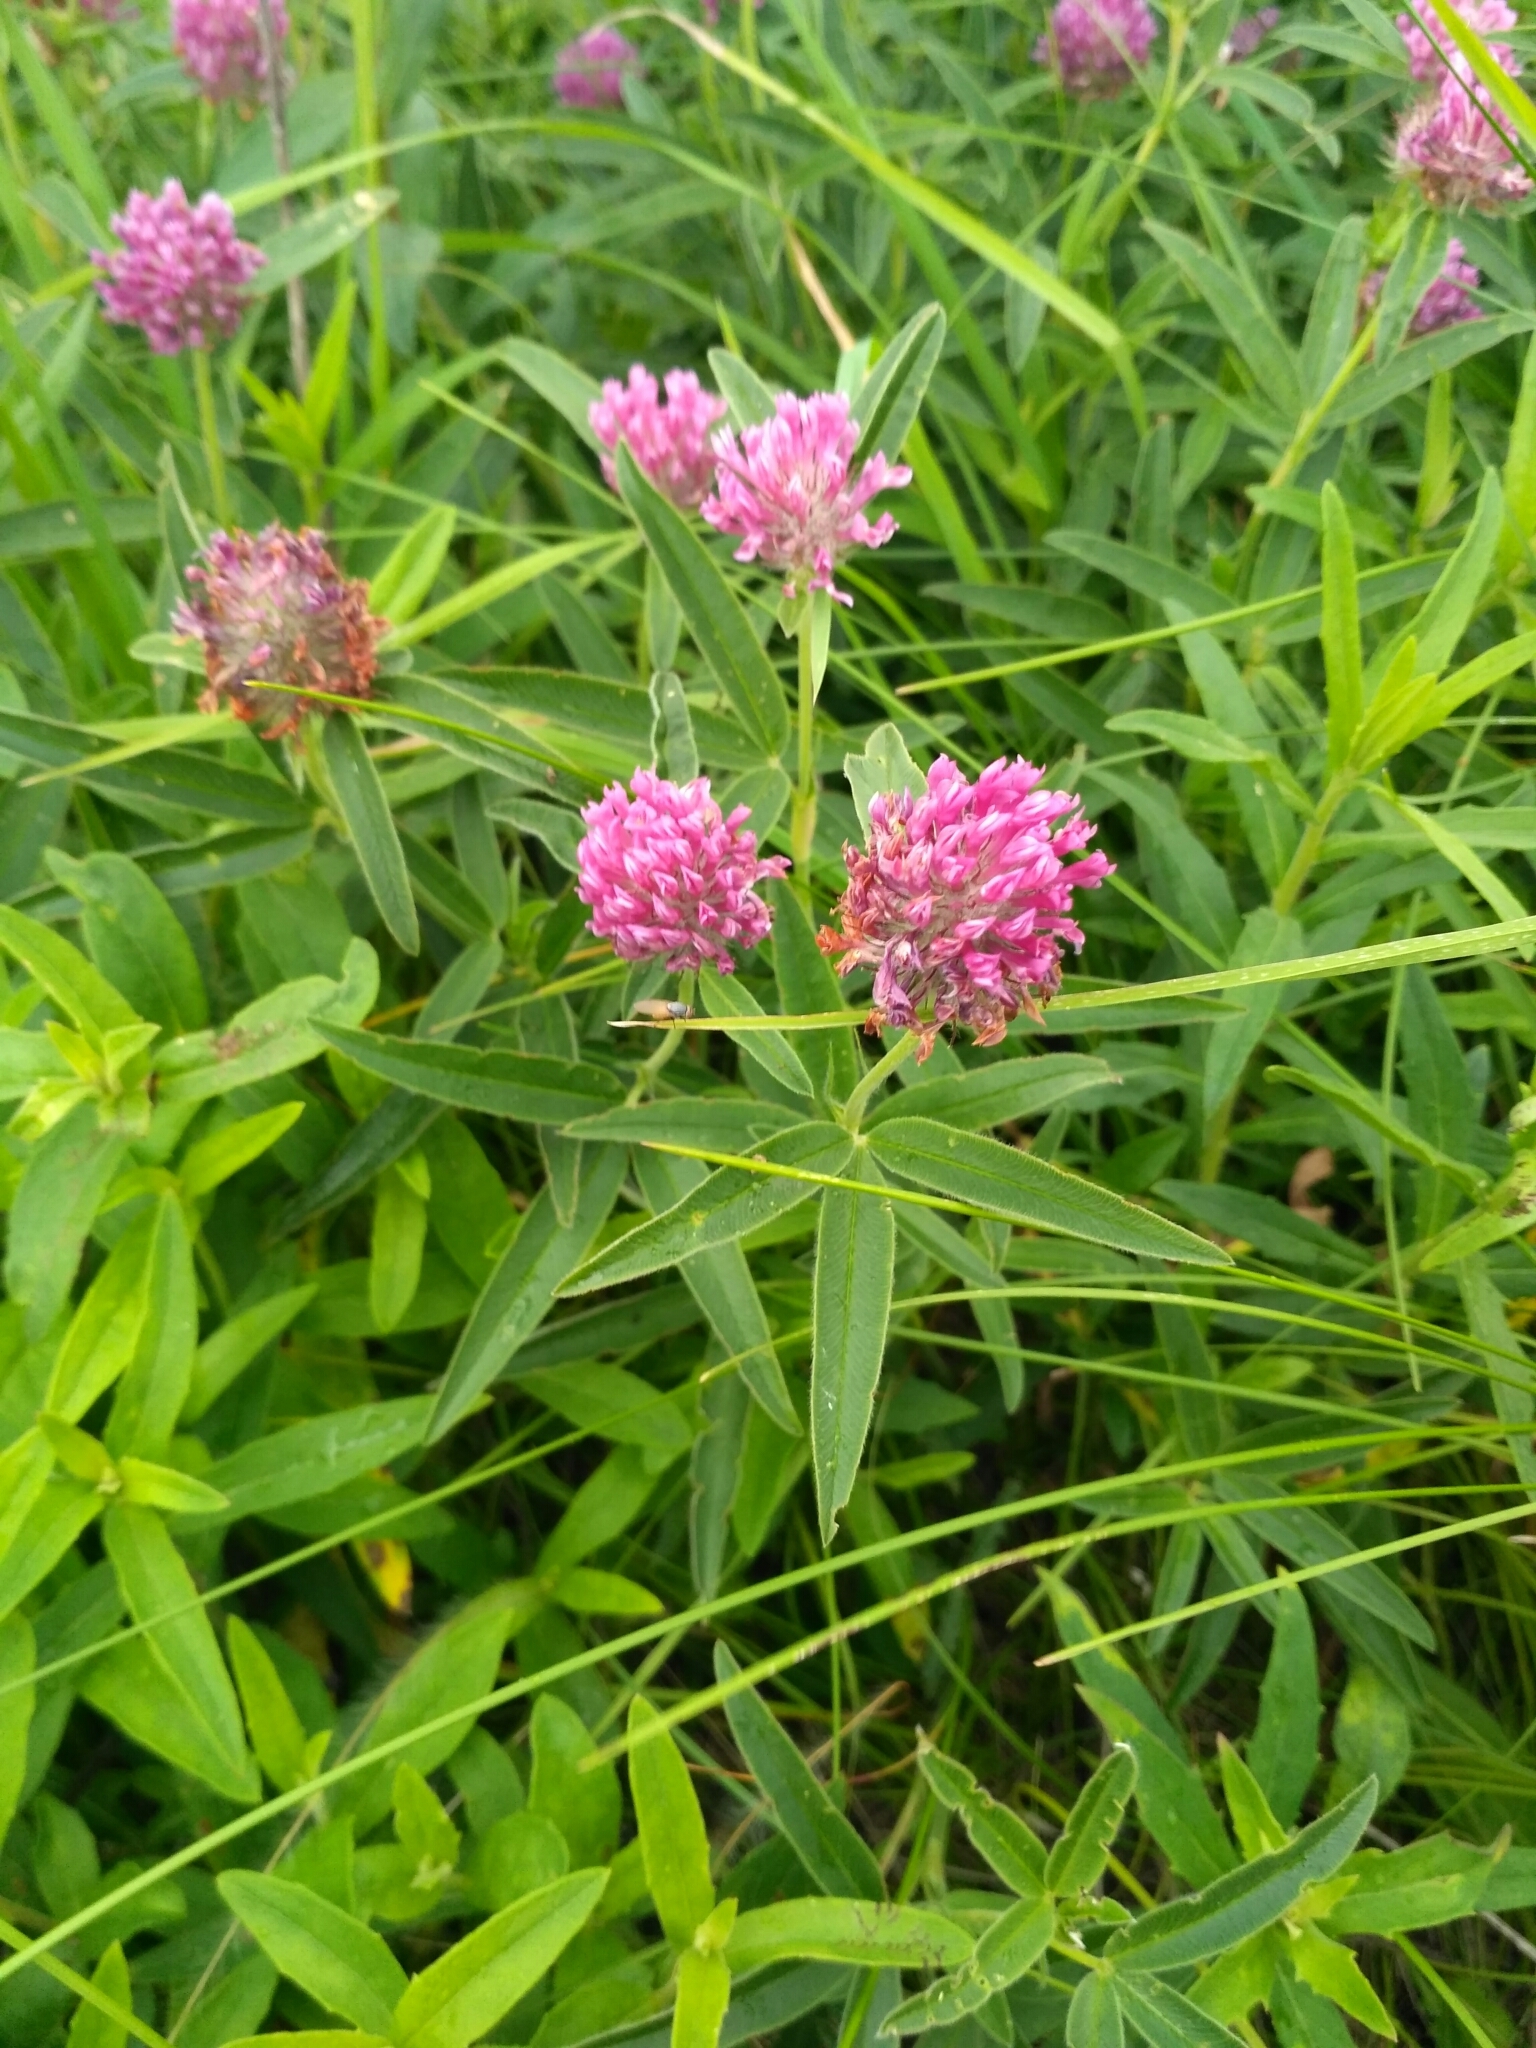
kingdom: Plantae
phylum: Tracheophyta
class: Magnoliopsida
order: Fabales
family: Fabaceae
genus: Trifolium
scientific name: Trifolium alpestre
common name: Owl-head clover
